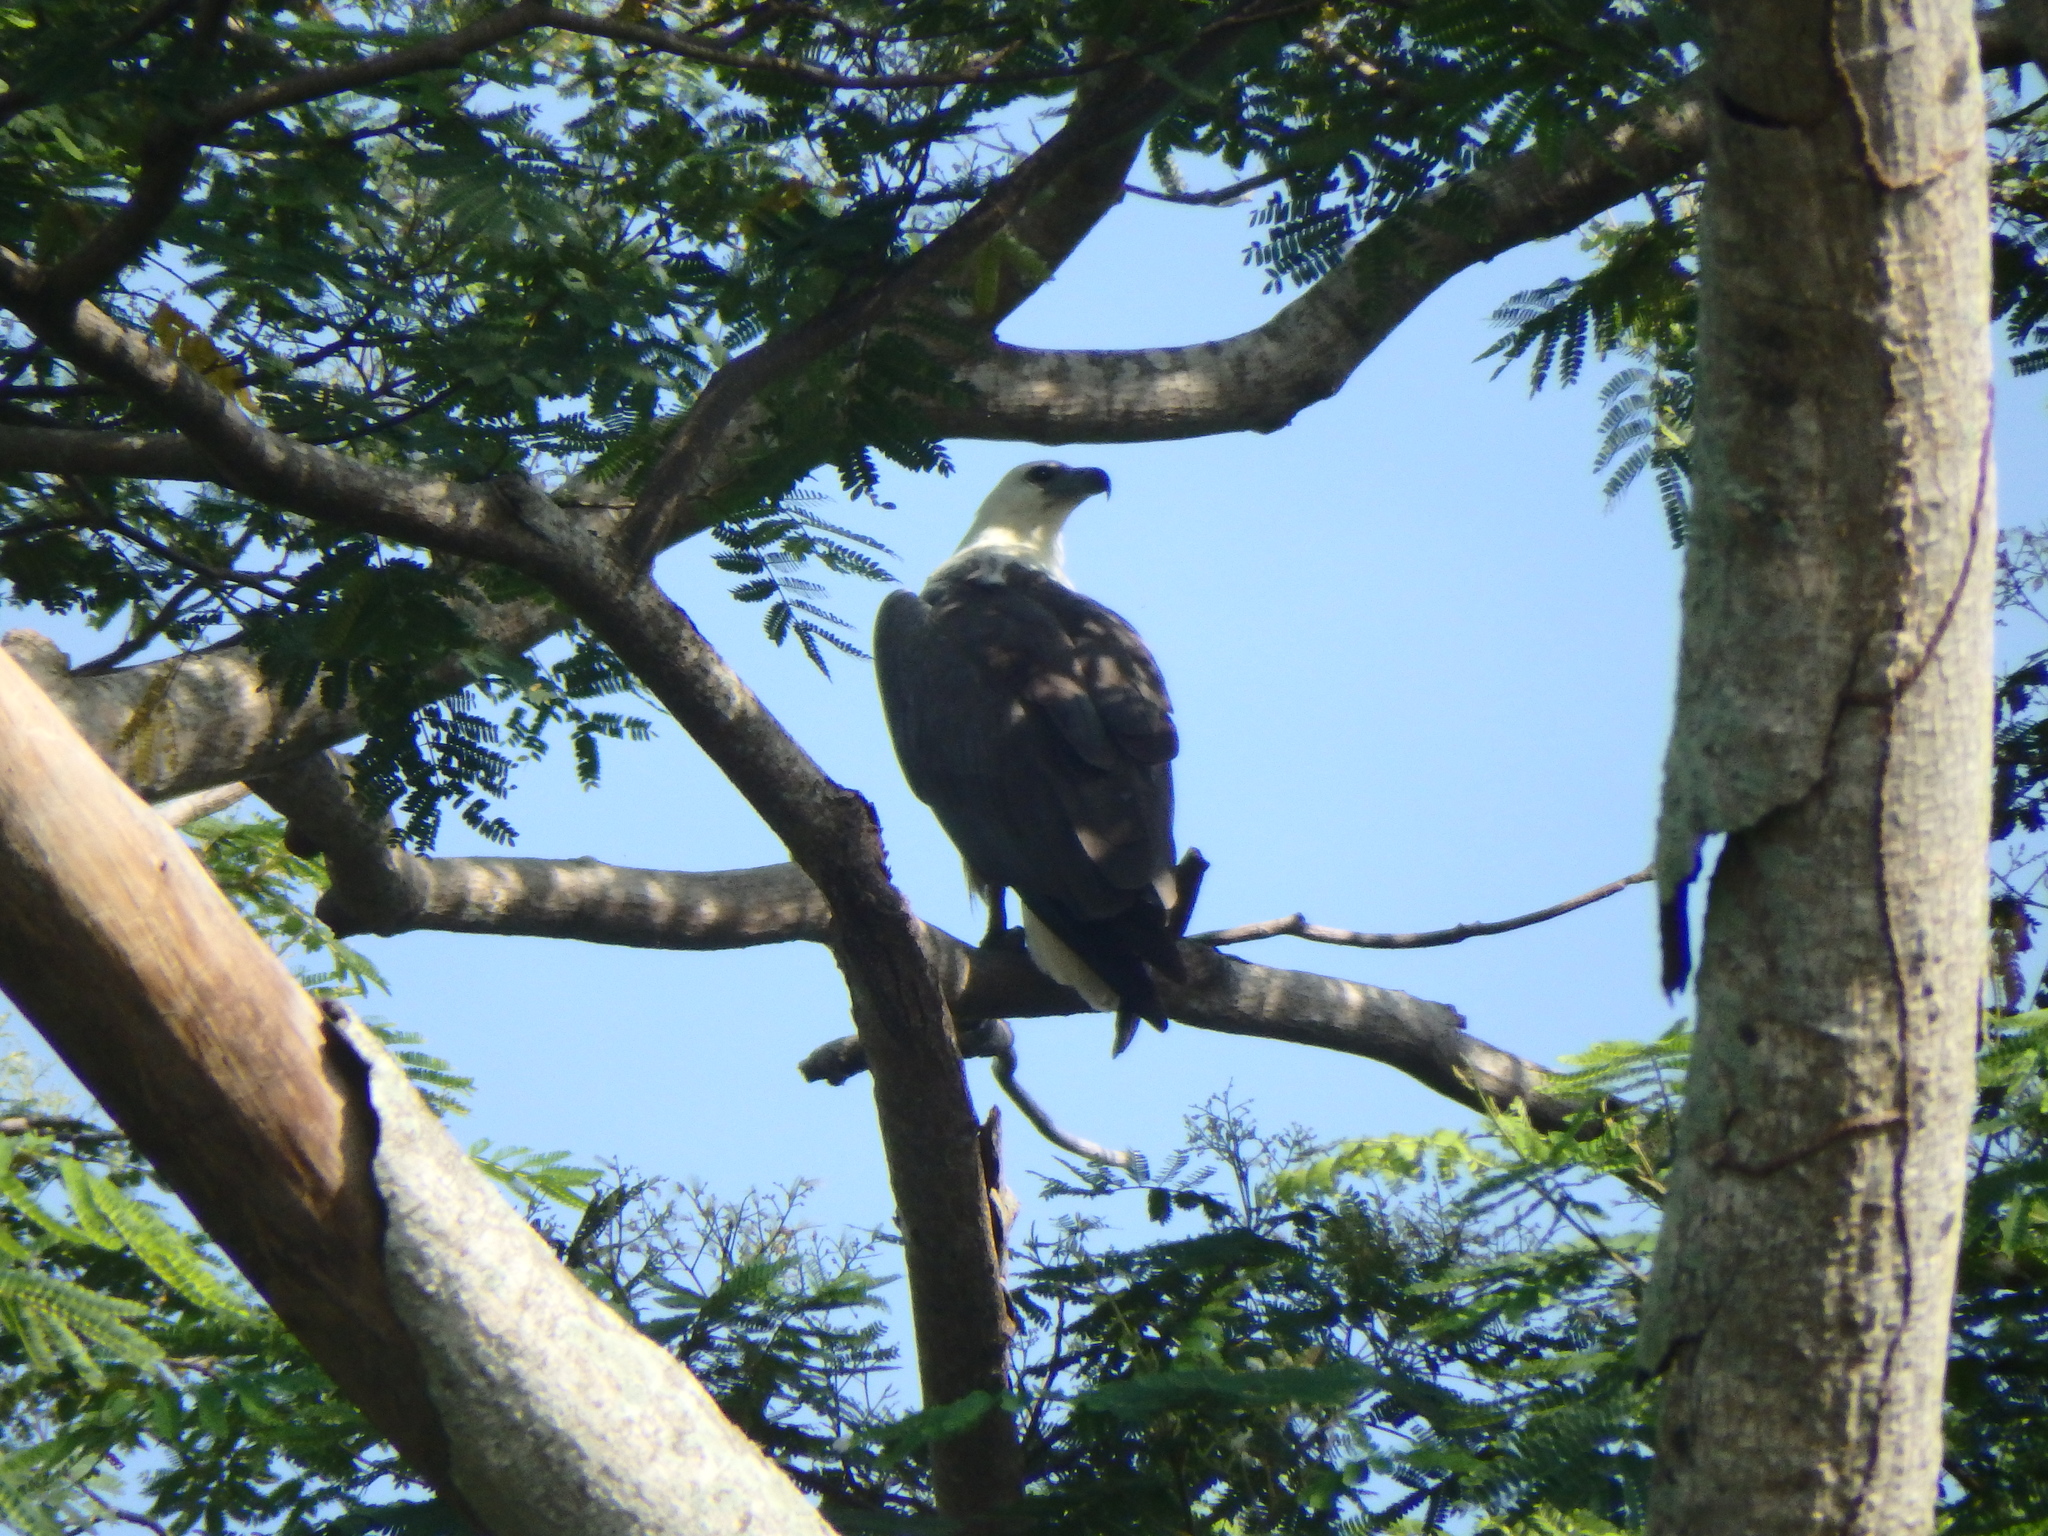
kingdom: Animalia
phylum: Chordata
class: Aves
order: Accipitriformes
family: Accipitridae
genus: Haliaeetus
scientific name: Haliaeetus leucogaster
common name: White-bellied sea eagle
